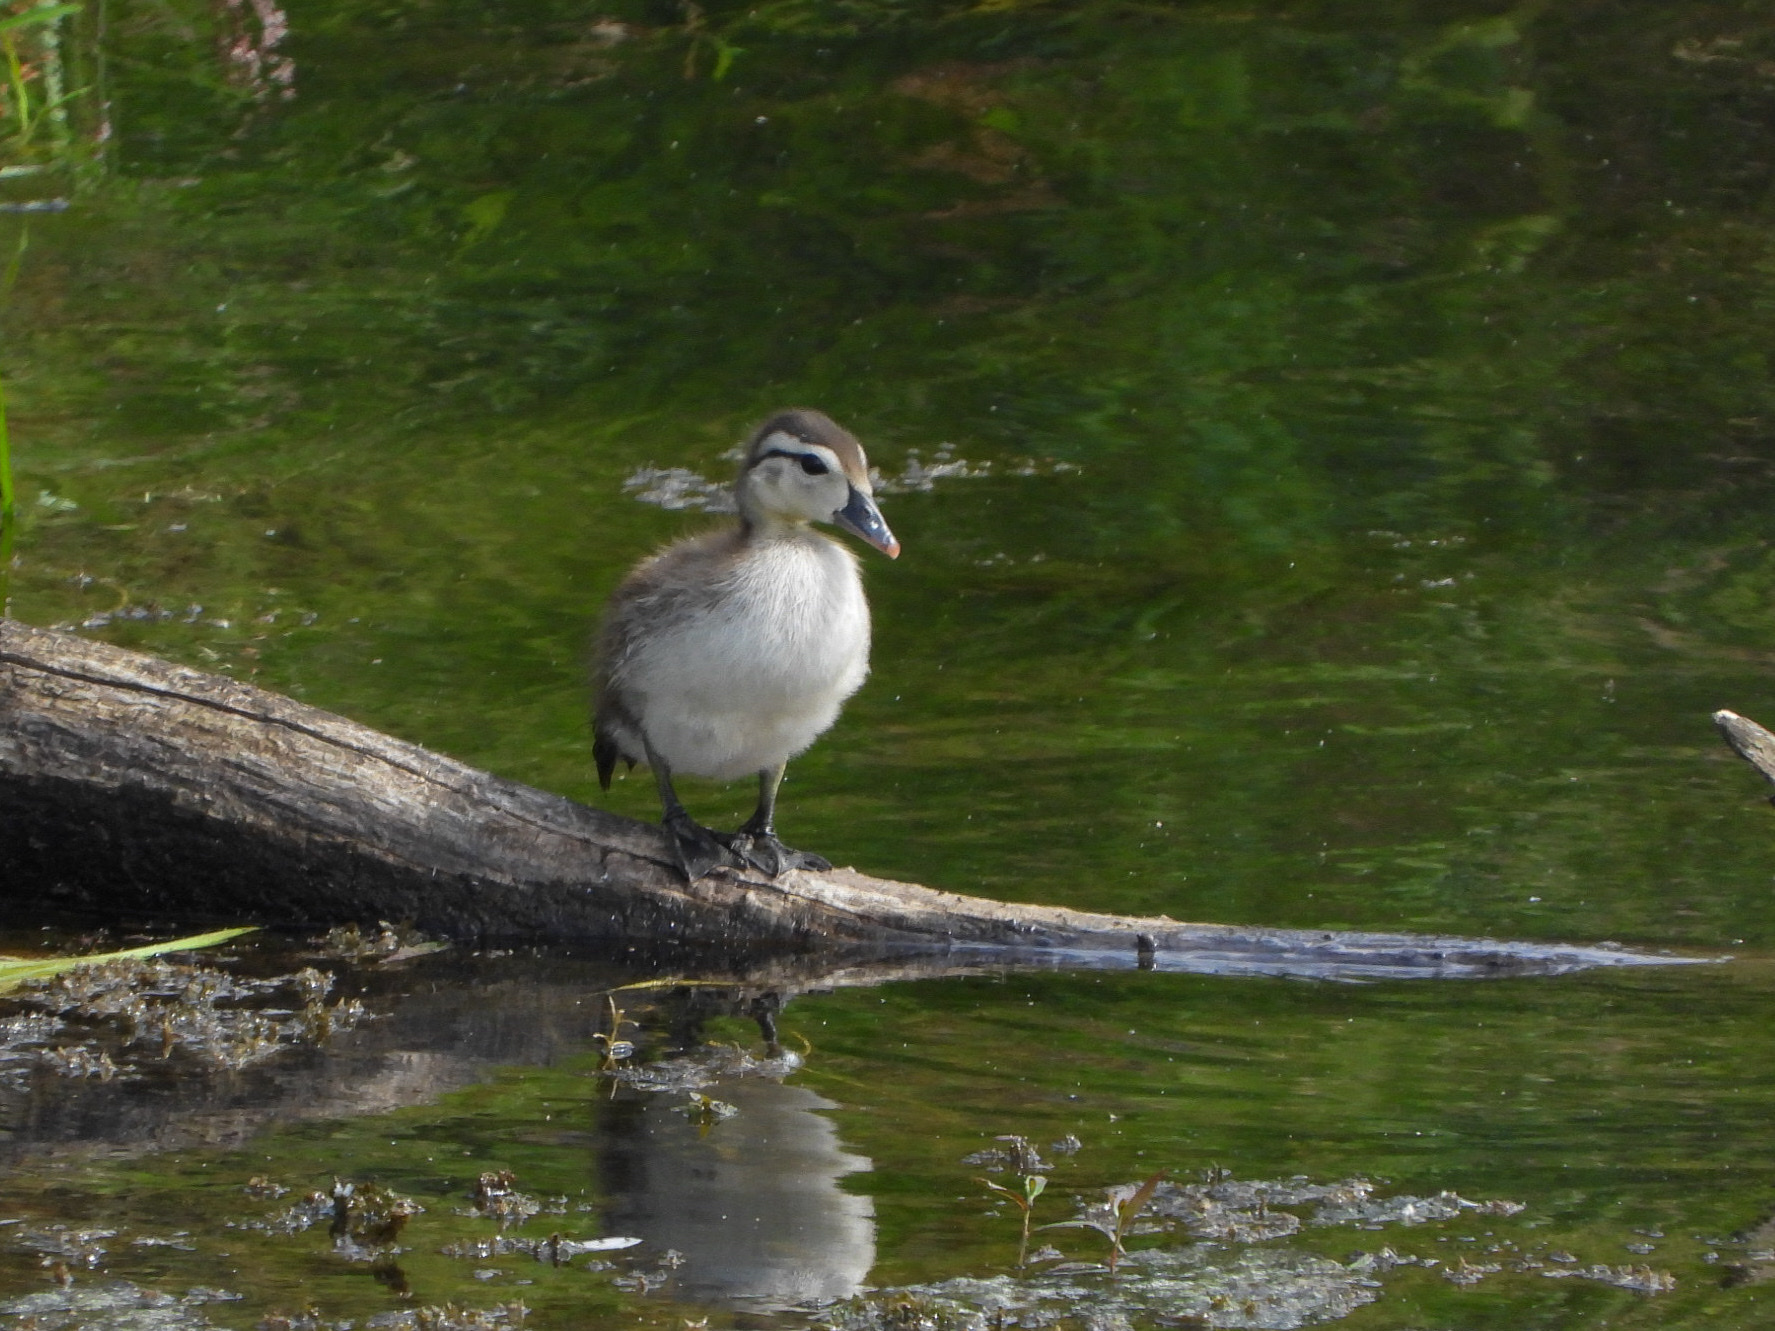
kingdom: Animalia
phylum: Chordata
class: Aves
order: Anseriformes
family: Anatidae
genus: Aix
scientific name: Aix sponsa
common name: Wood duck
